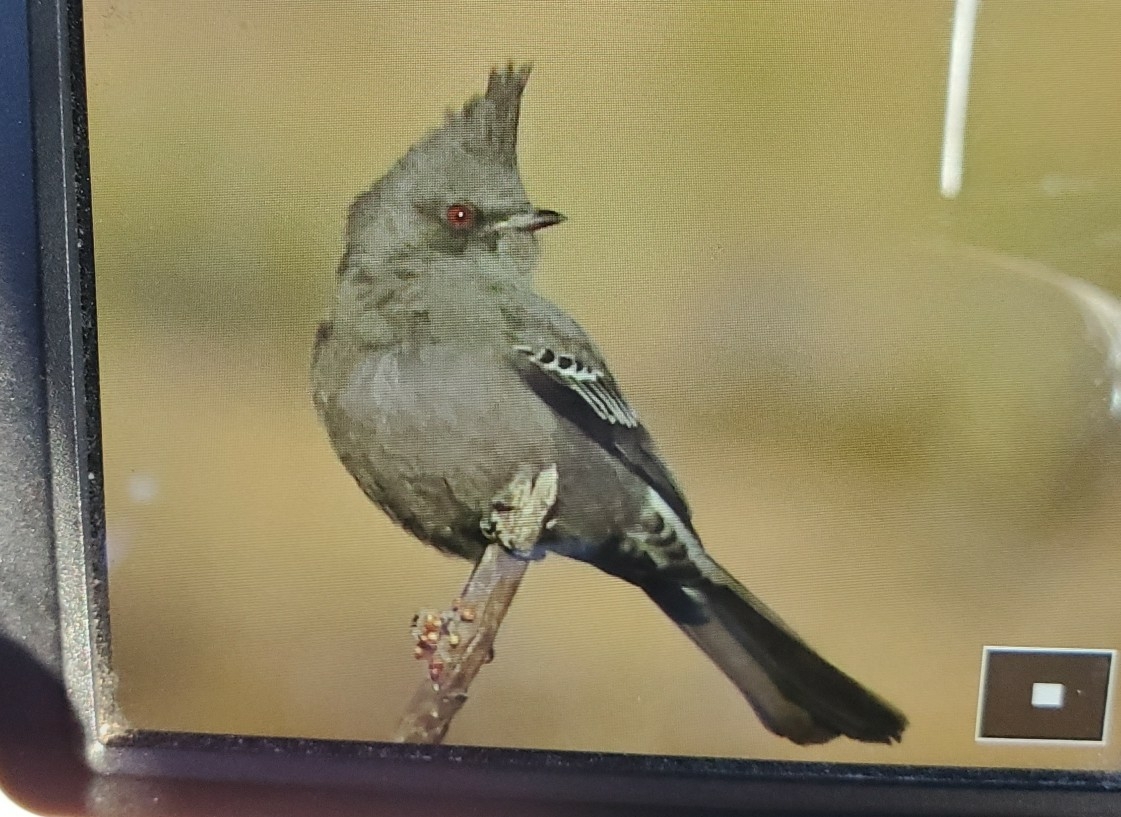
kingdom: Animalia
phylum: Chordata
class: Aves
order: Passeriformes
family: Ptilogonatidae
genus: Phainopepla
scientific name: Phainopepla nitens
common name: Phainopepla
